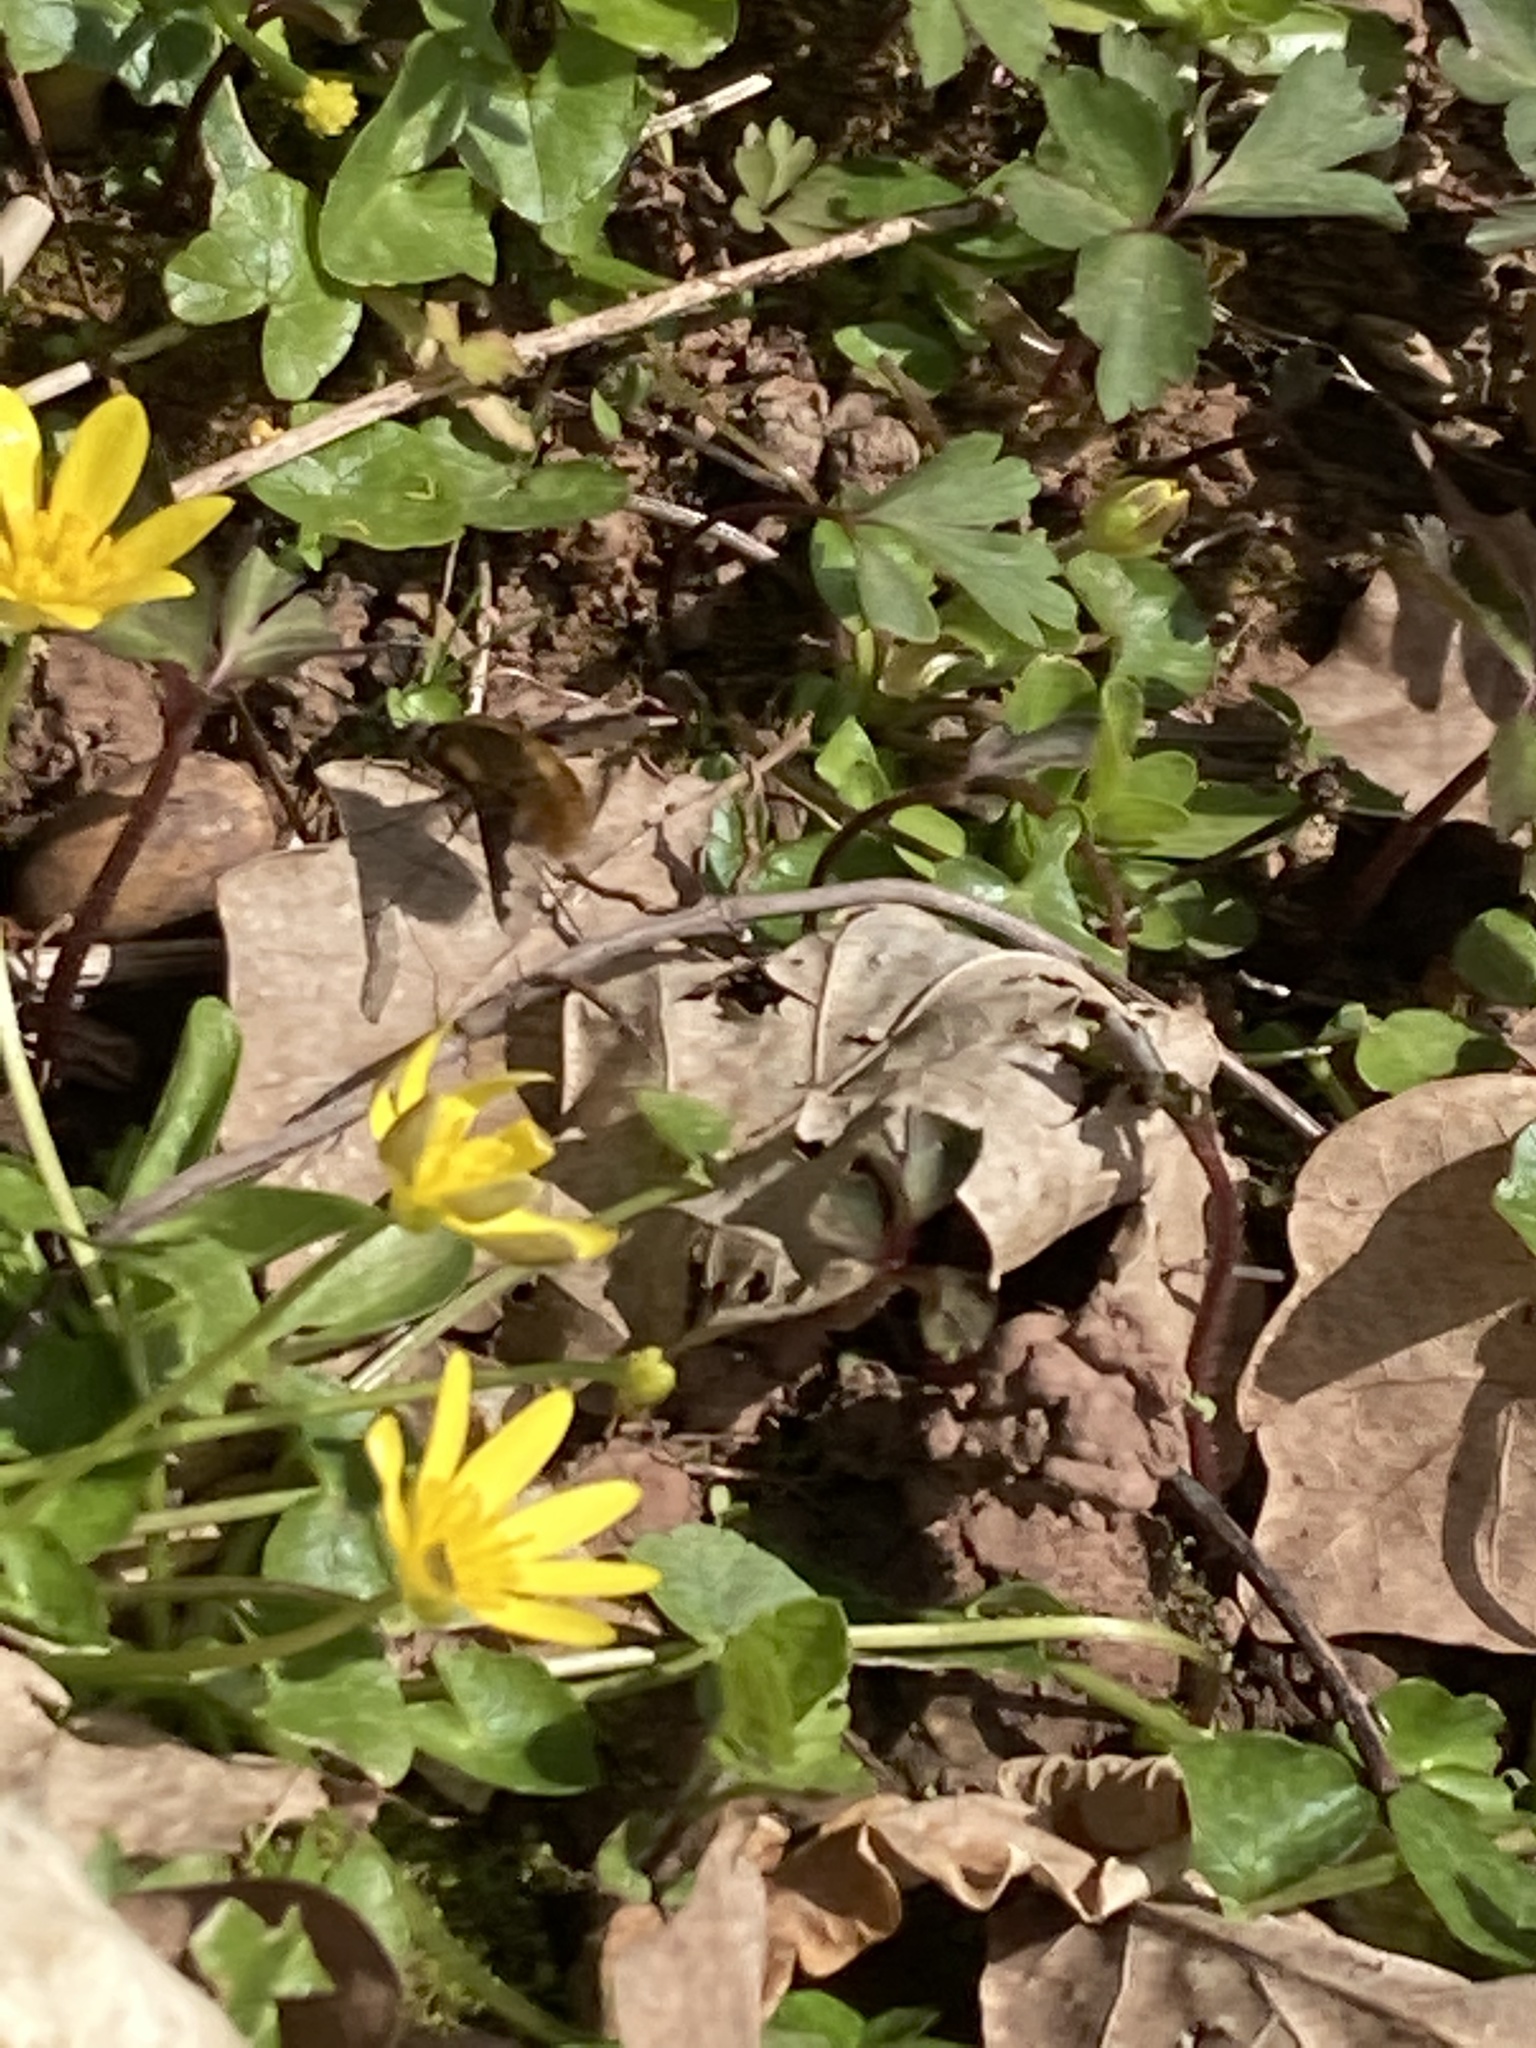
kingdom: Animalia
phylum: Arthropoda
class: Insecta
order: Diptera
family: Bombyliidae
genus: Bombylius
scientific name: Bombylius major
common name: Bee fly
